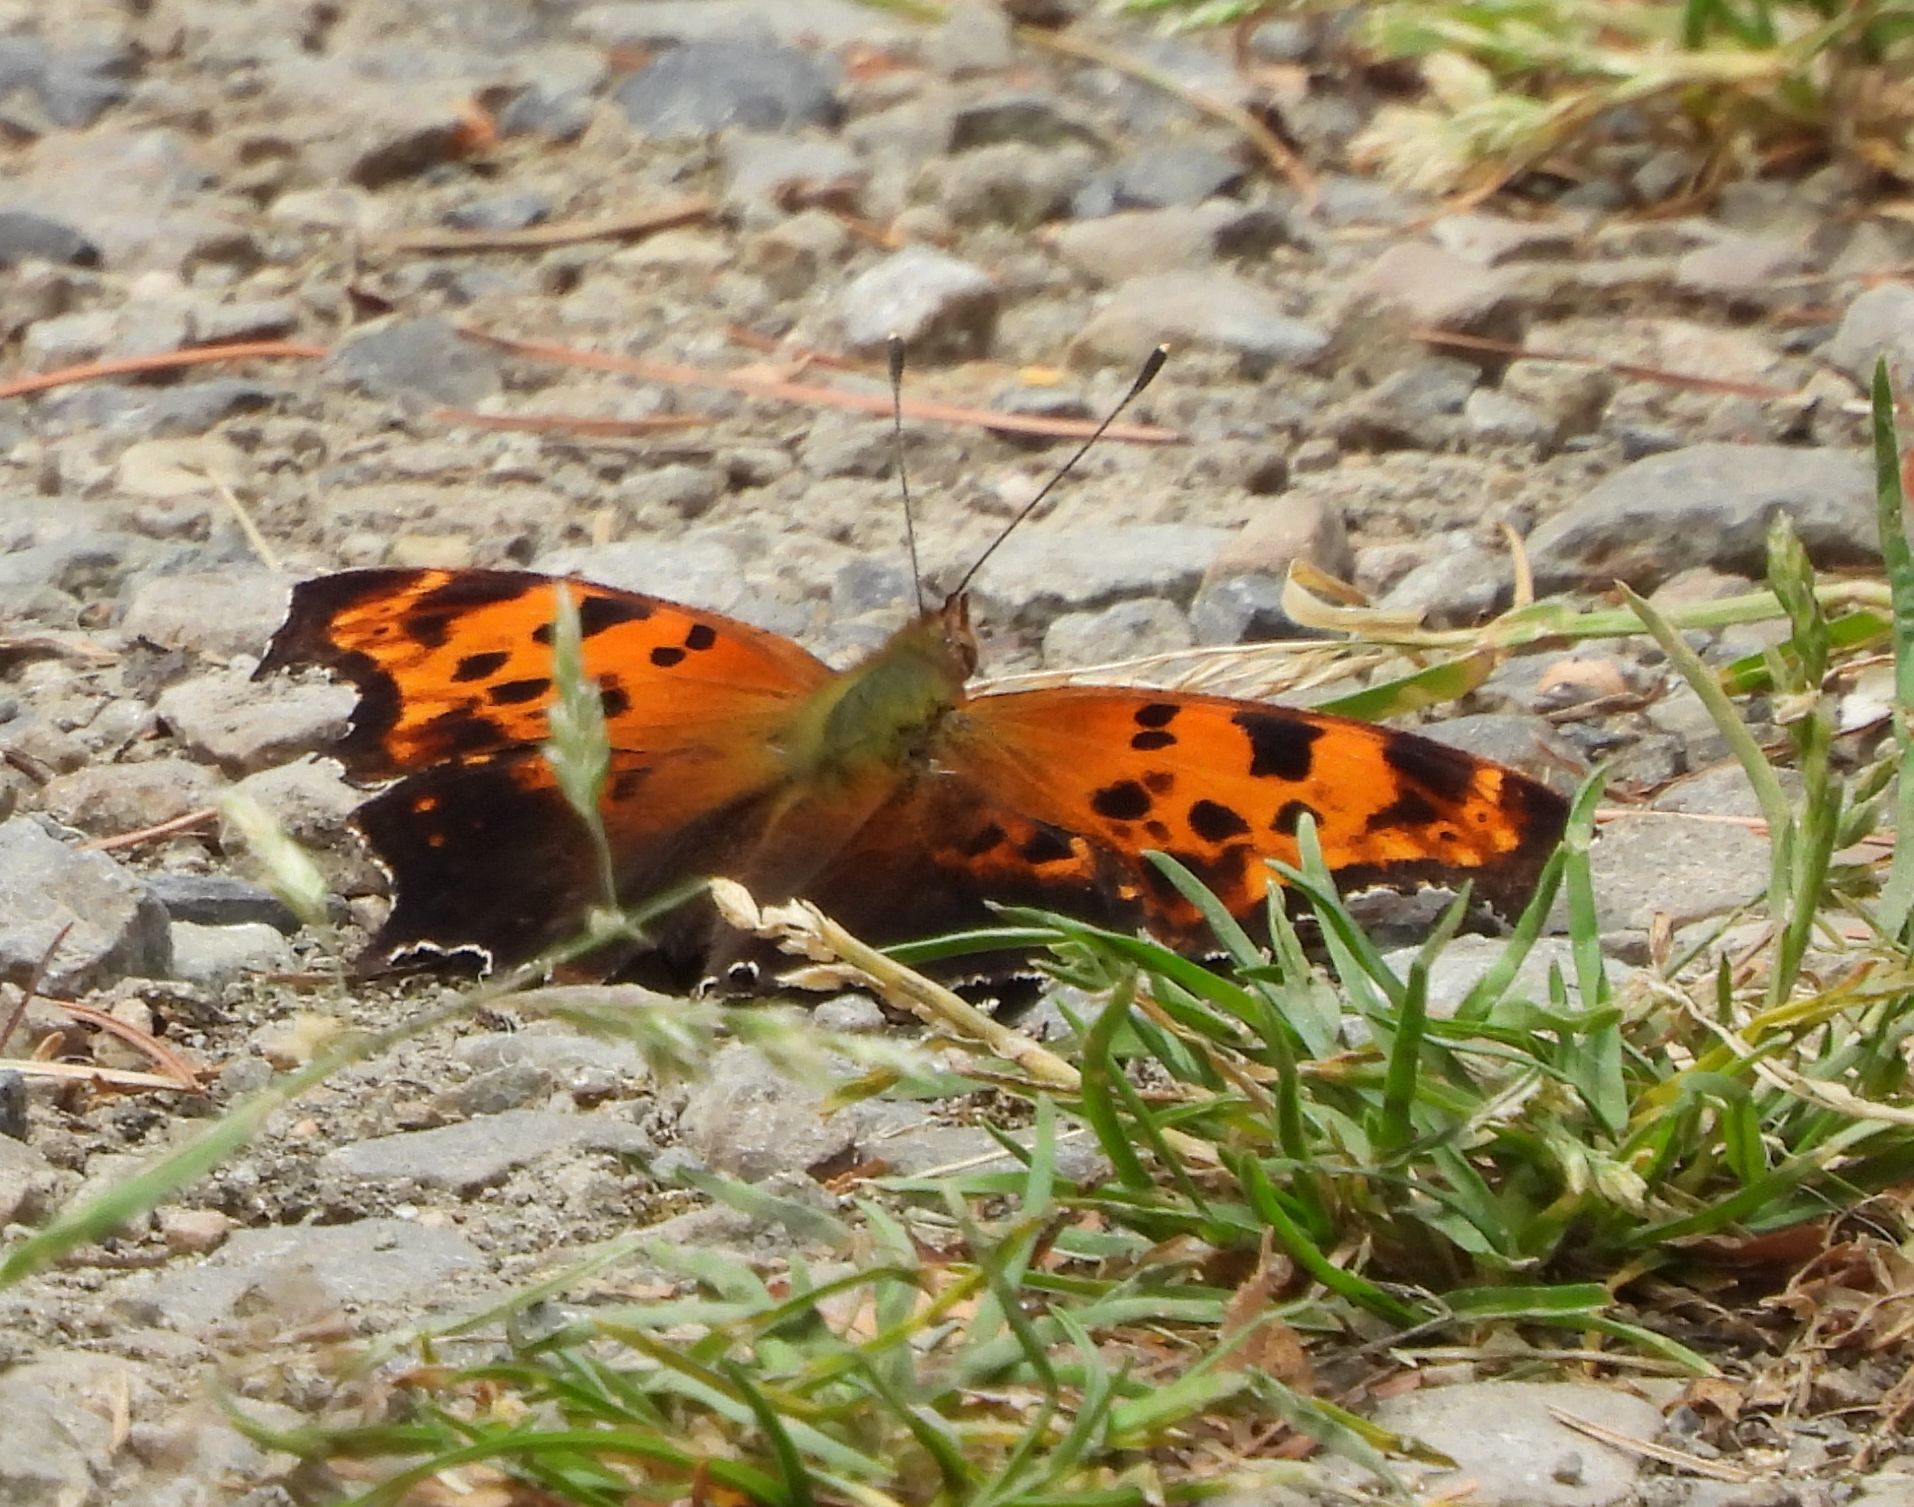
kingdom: Animalia
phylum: Arthropoda
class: Insecta
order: Lepidoptera
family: Nymphalidae
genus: Polygonia
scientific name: Polygonia comma
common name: Eastern comma
